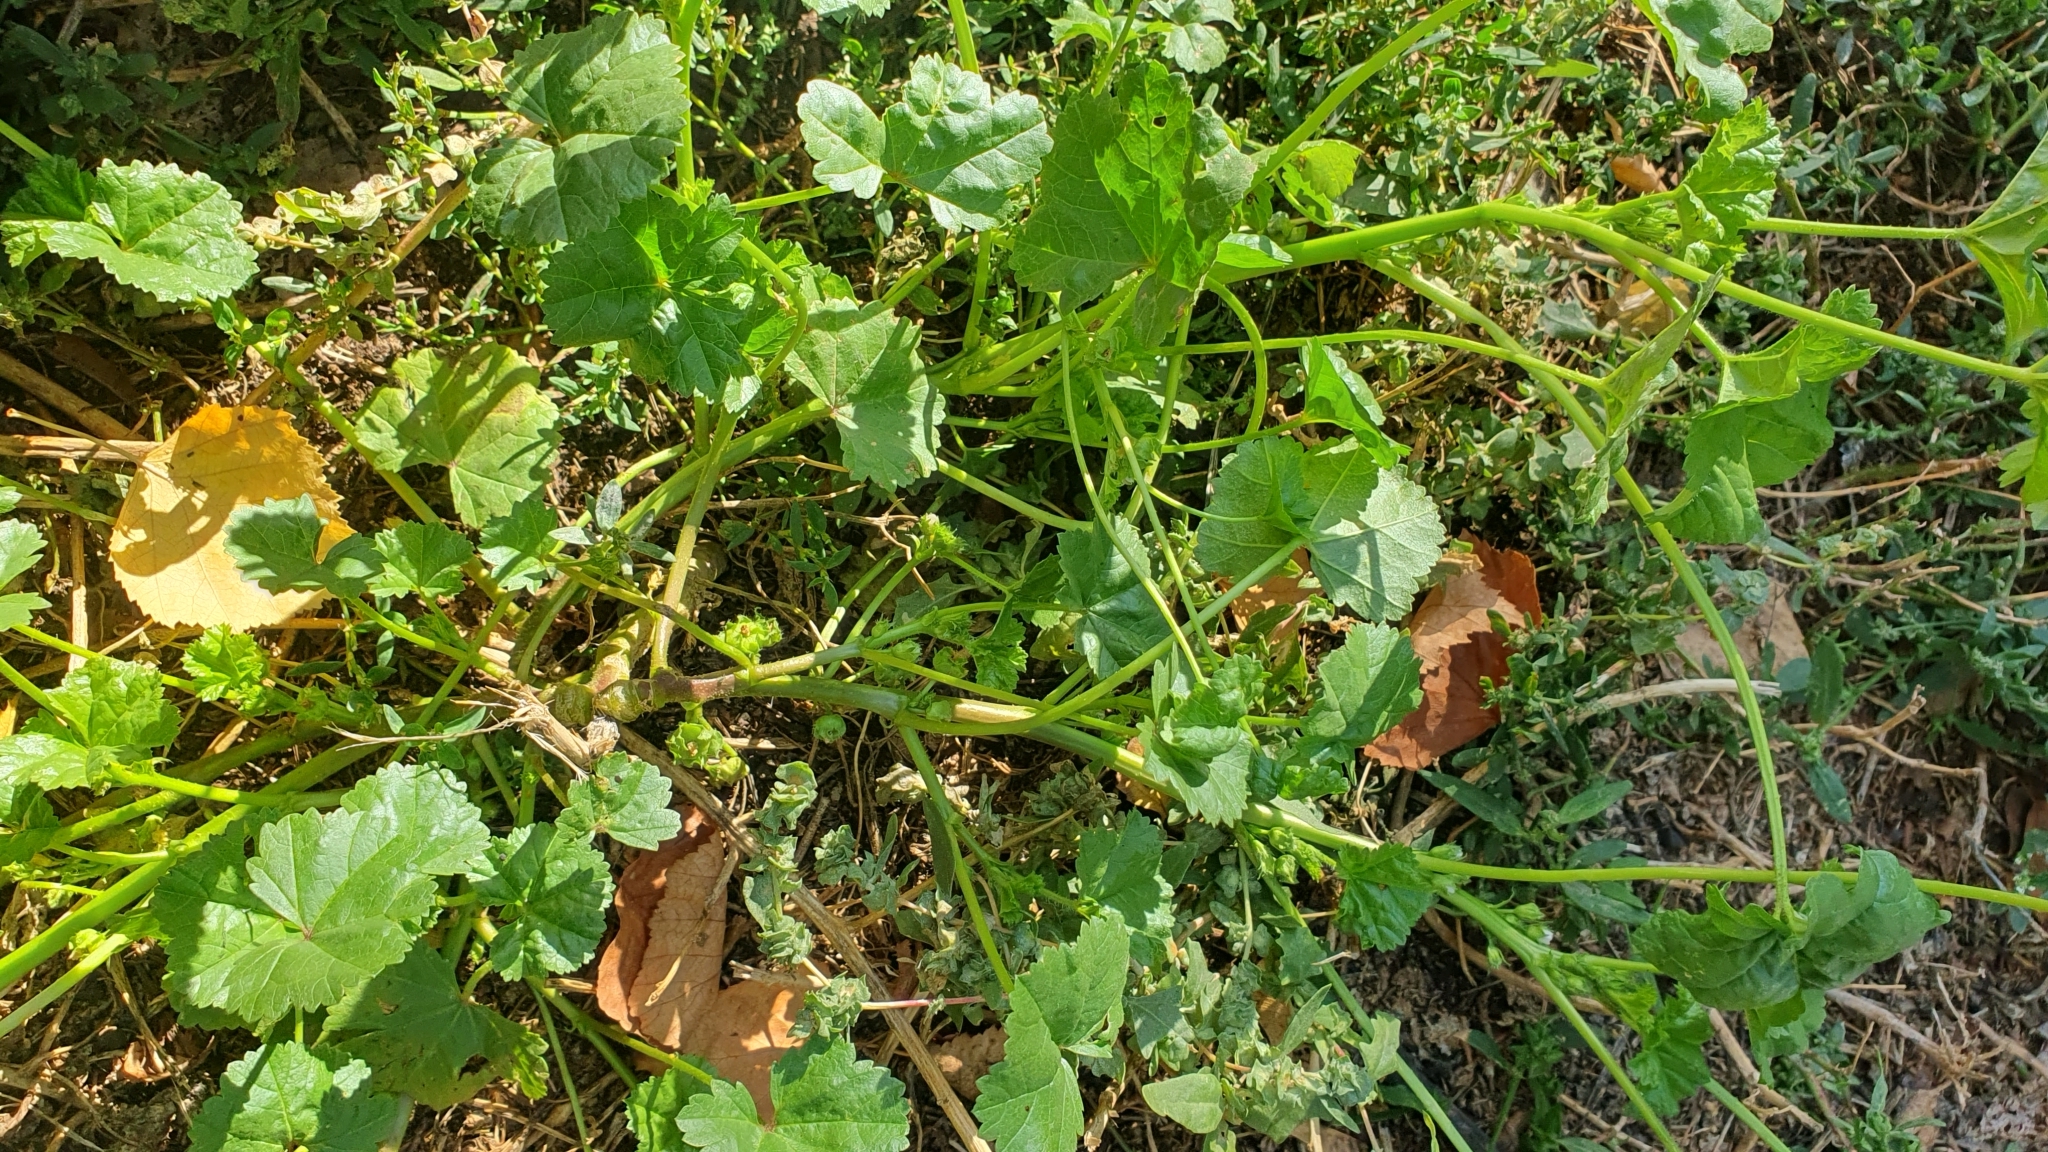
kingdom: Plantae
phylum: Tracheophyta
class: Magnoliopsida
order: Malvales
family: Malvaceae
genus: Malva
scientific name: Malva pusilla
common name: Small mallow
